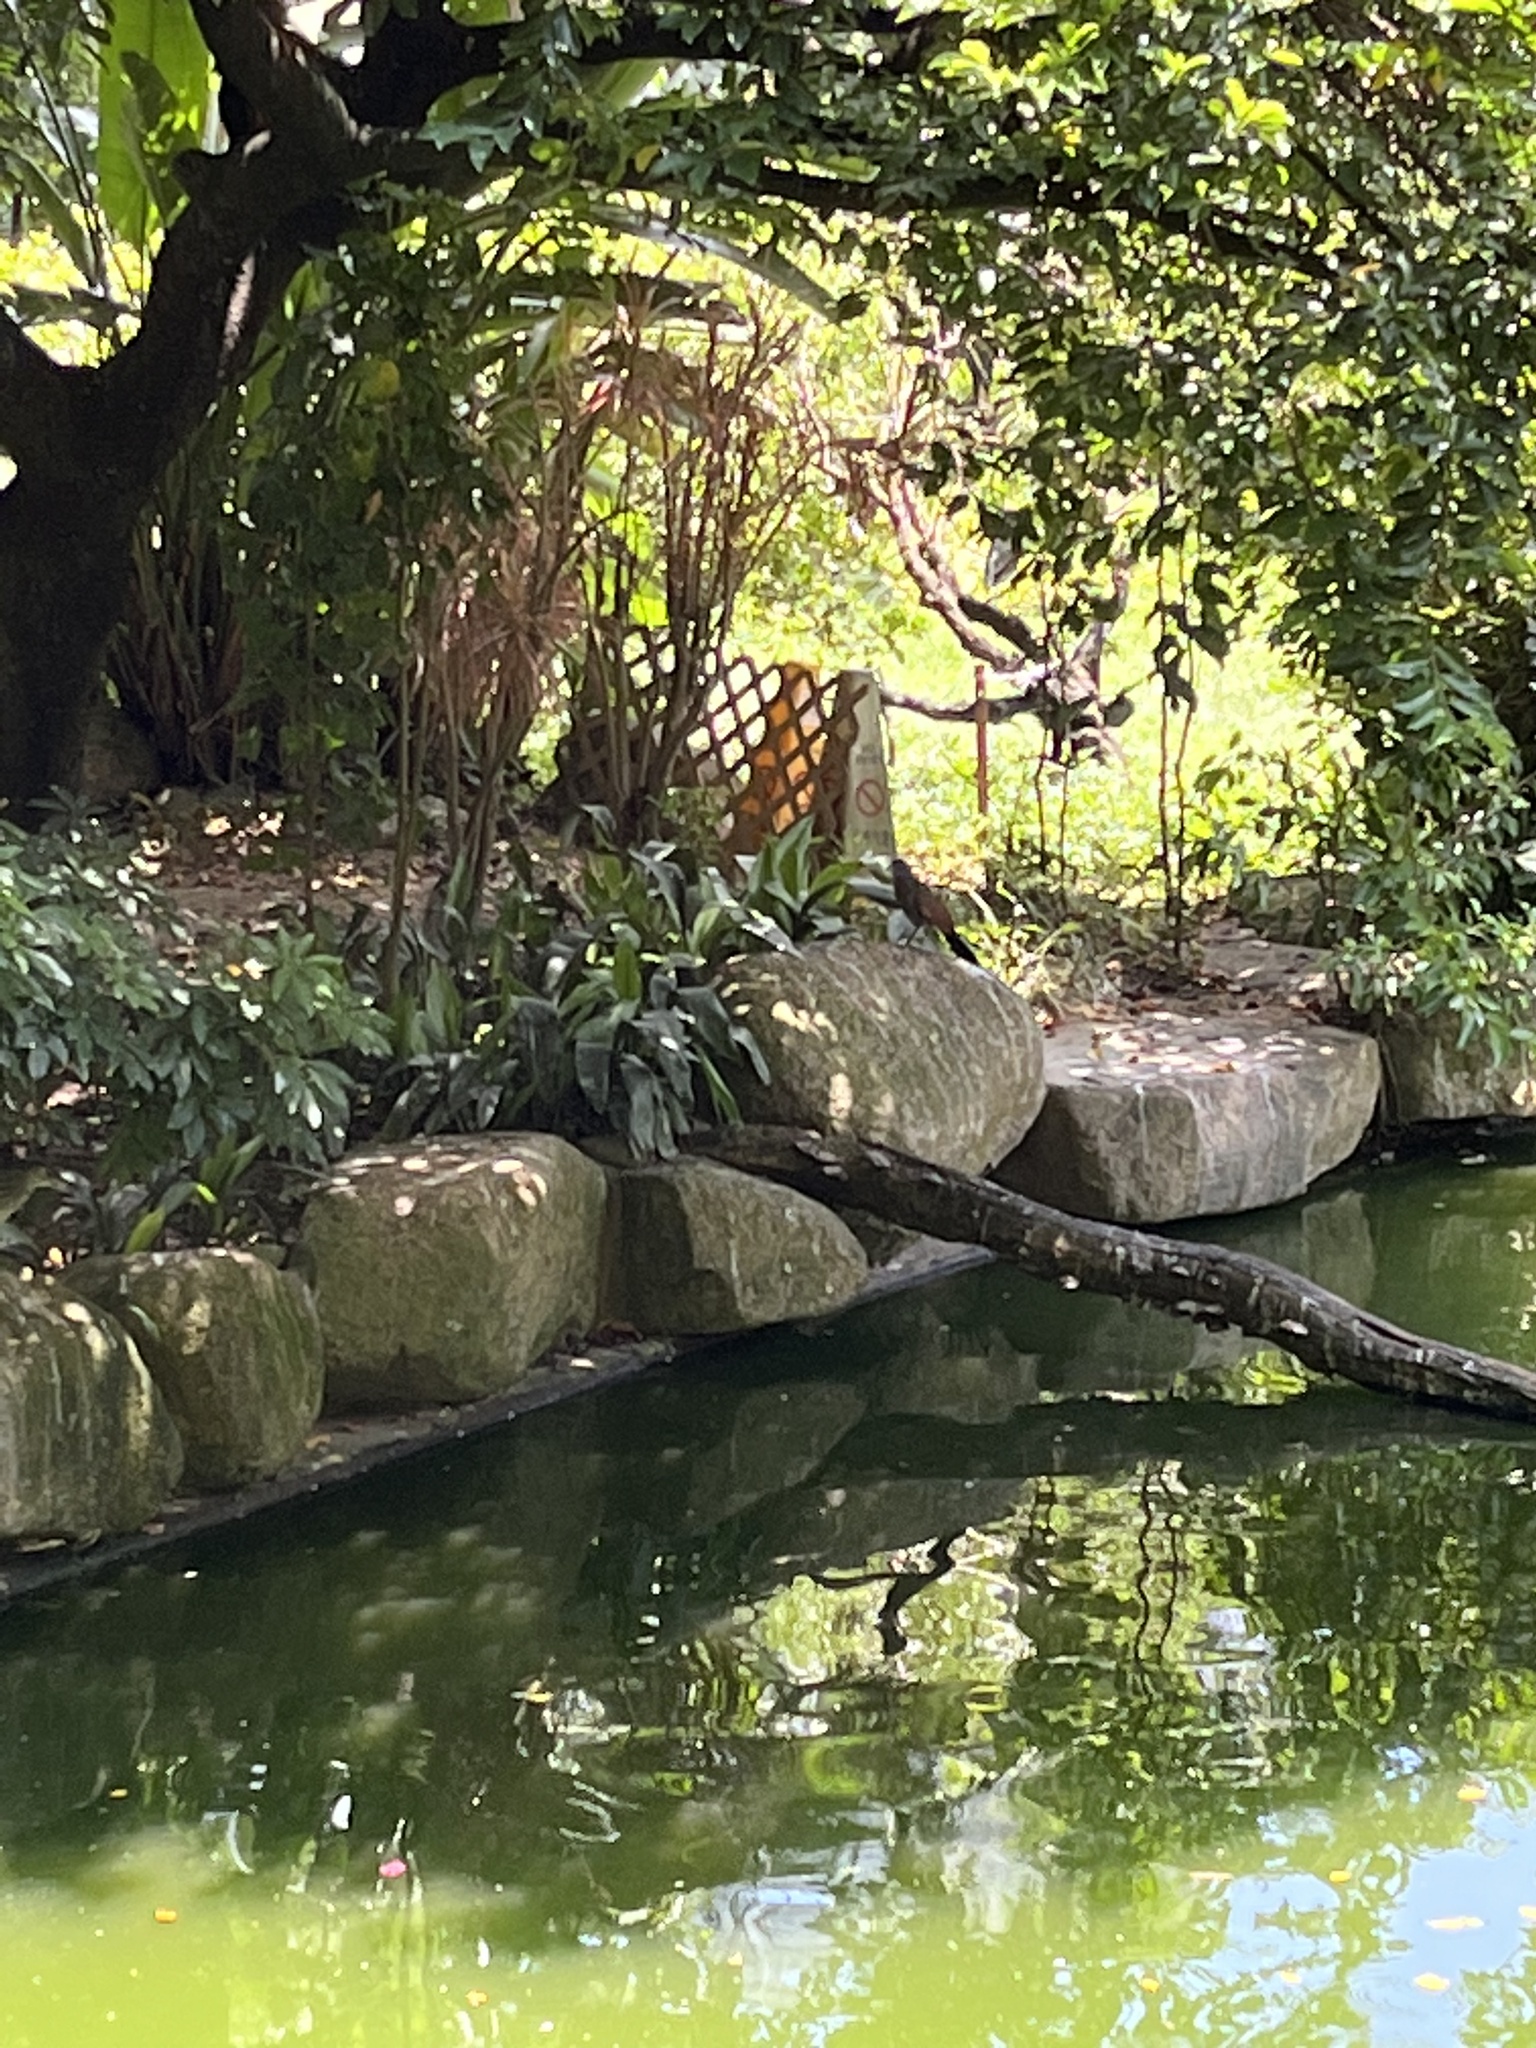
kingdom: Animalia
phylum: Chordata
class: Aves
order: Cuculiformes
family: Cuculidae
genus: Centropus
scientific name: Centropus sinensis
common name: Greater coucal
